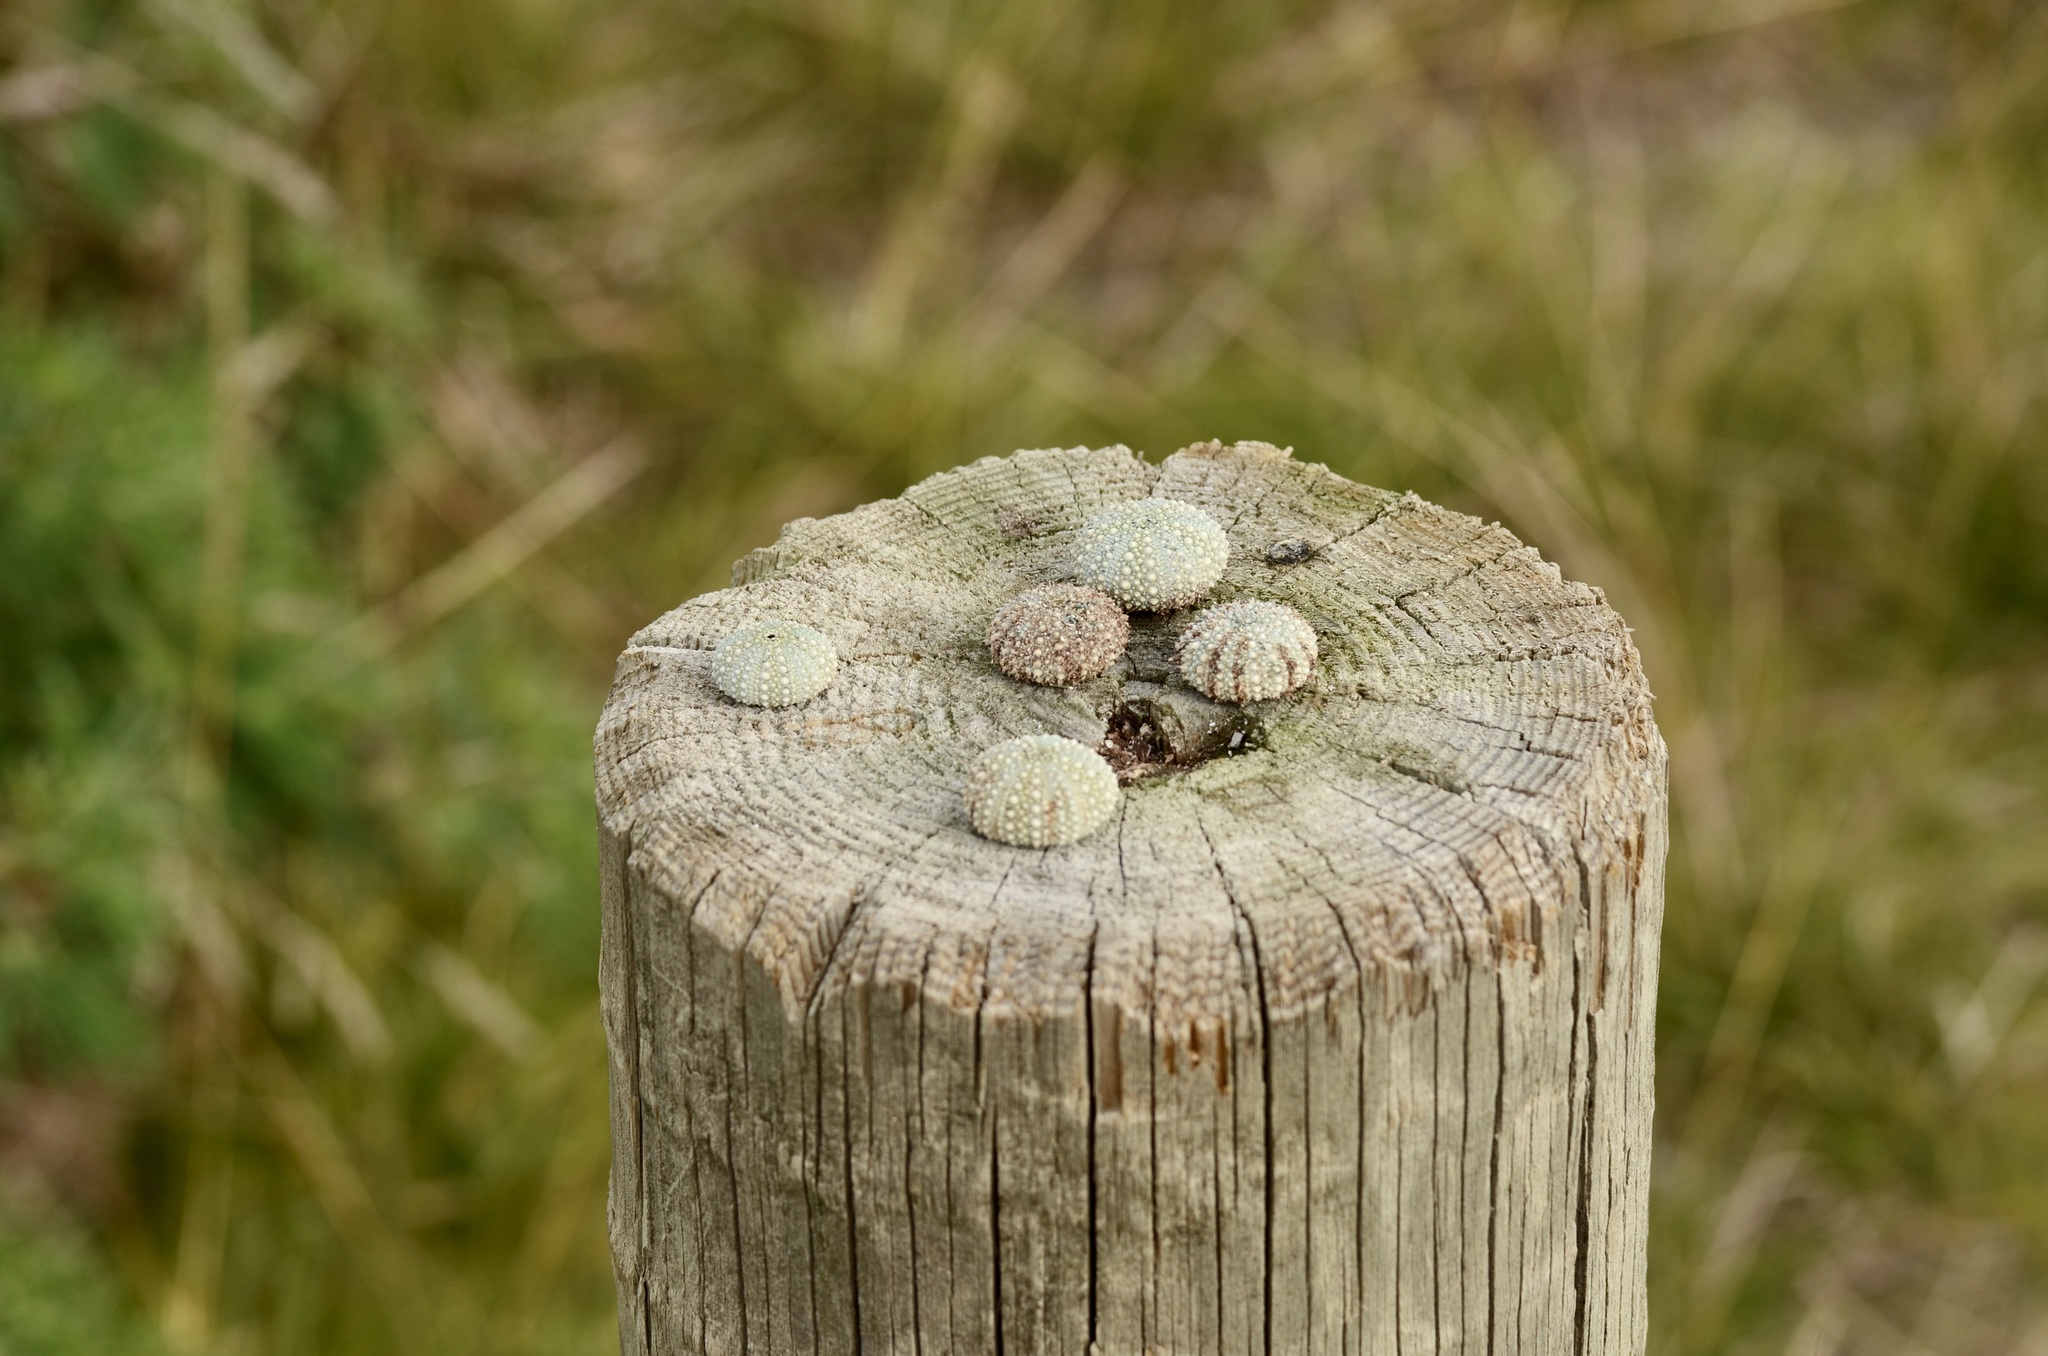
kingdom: Animalia
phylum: Echinodermata
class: Echinoidea
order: Camarodonta
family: Echinometridae
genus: Evechinus
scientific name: Evechinus chloroticus
